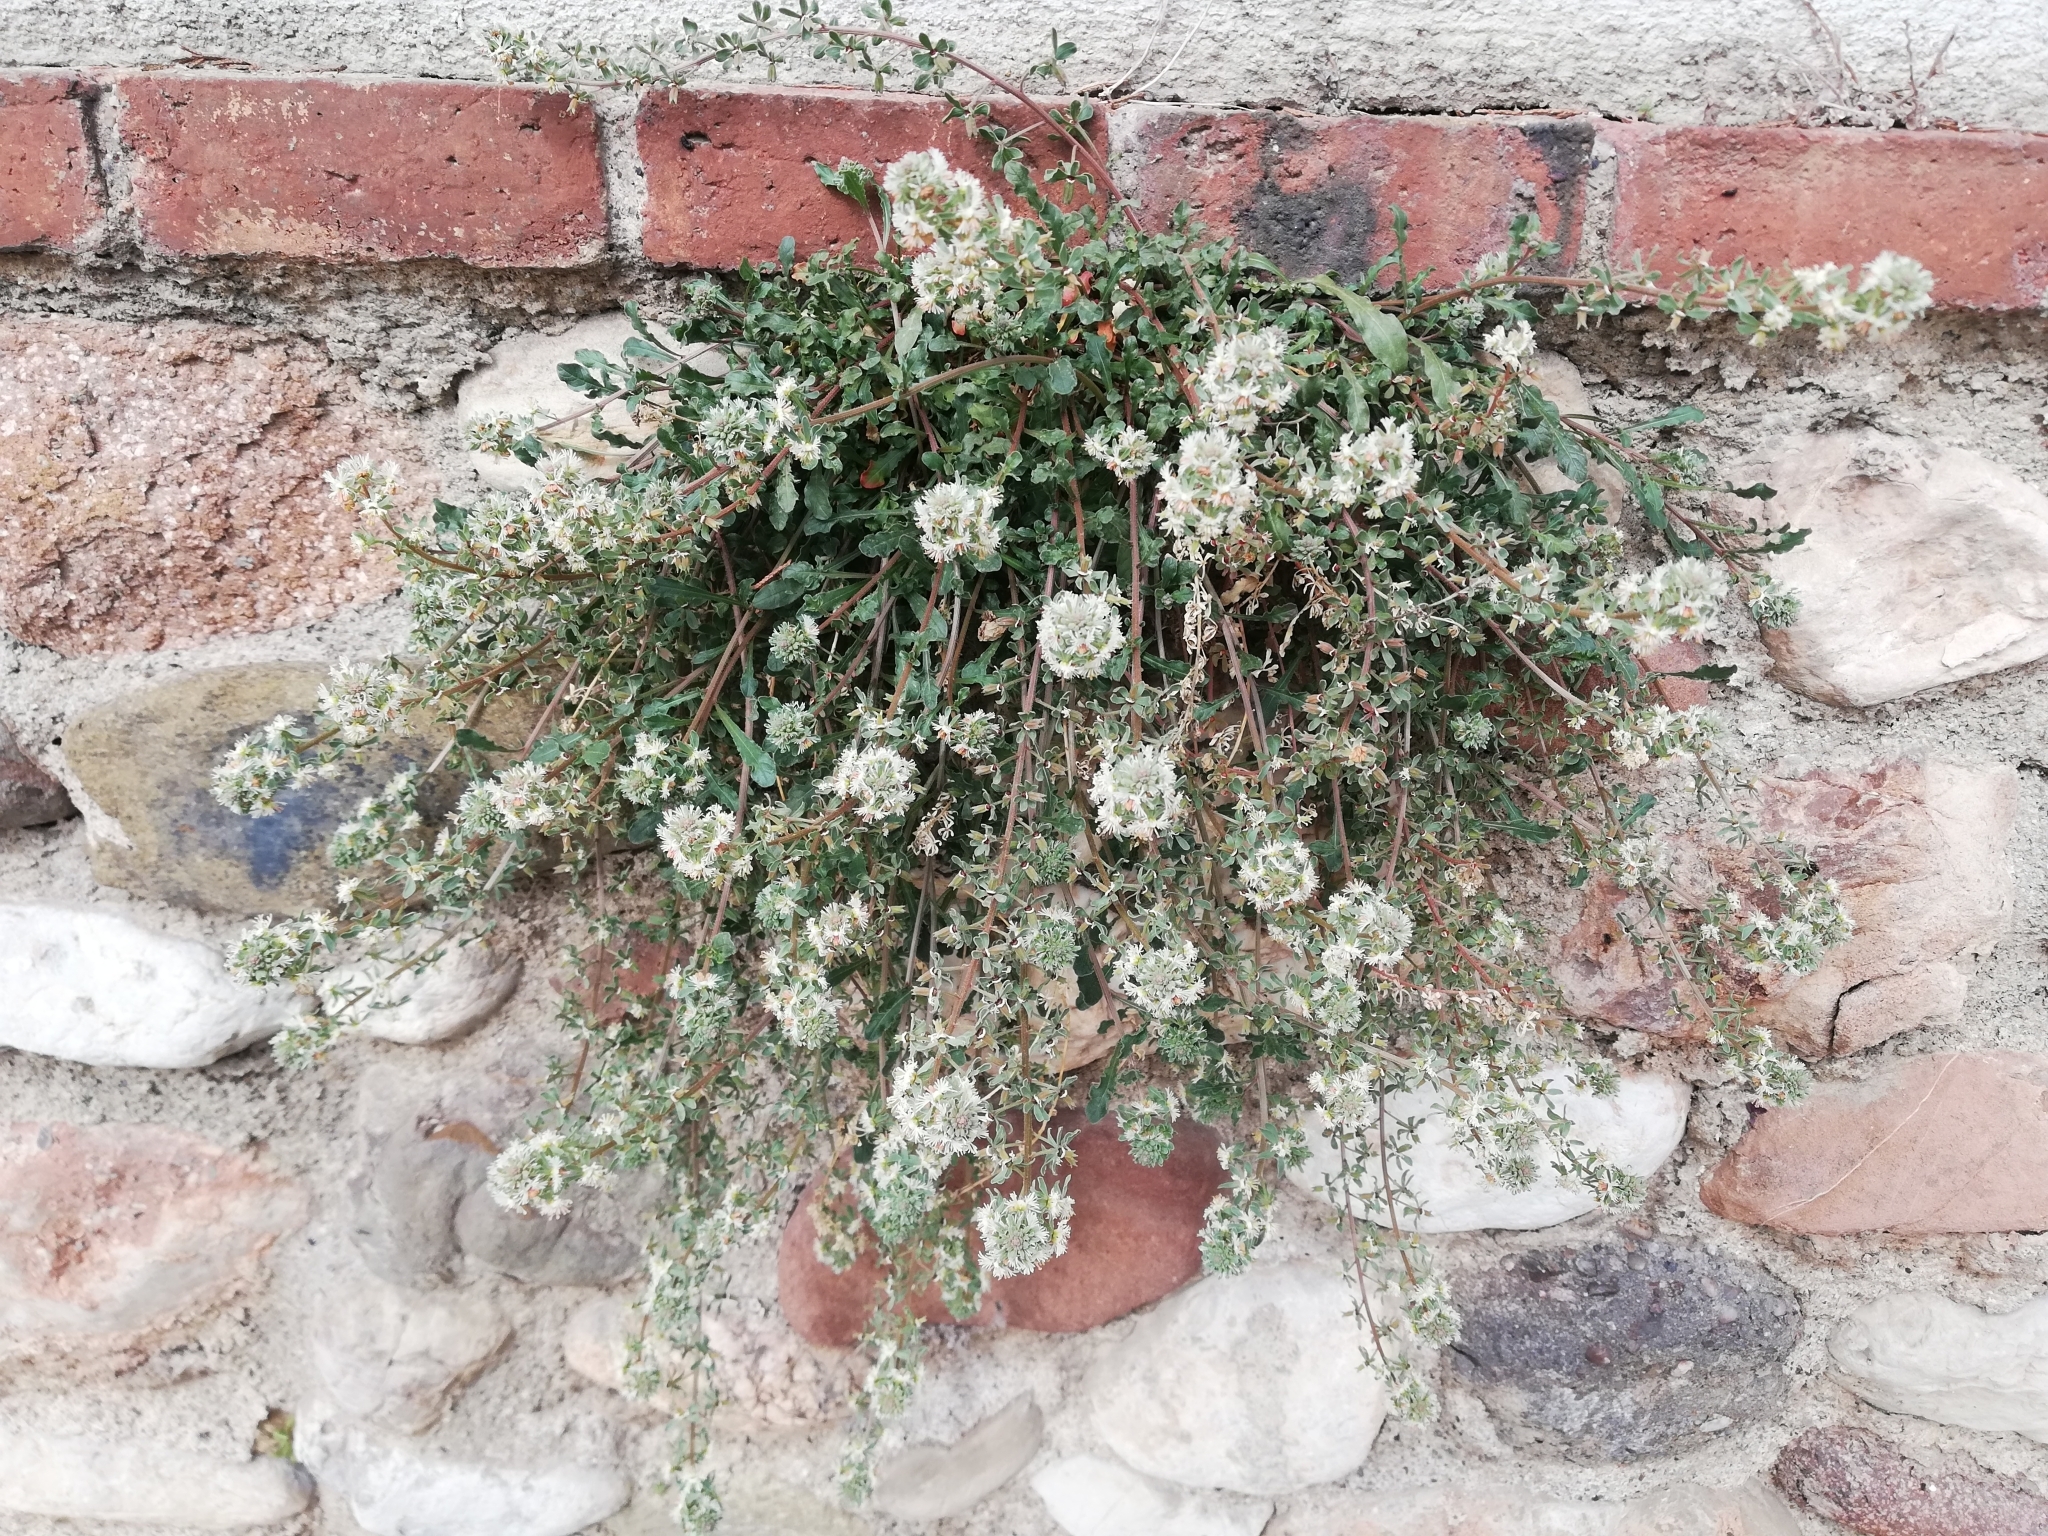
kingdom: Plantae
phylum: Tracheophyta
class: Magnoliopsida
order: Brassicales
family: Resedaceae
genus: Reseda
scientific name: Reseda phyteuma
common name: Corn mignonette
